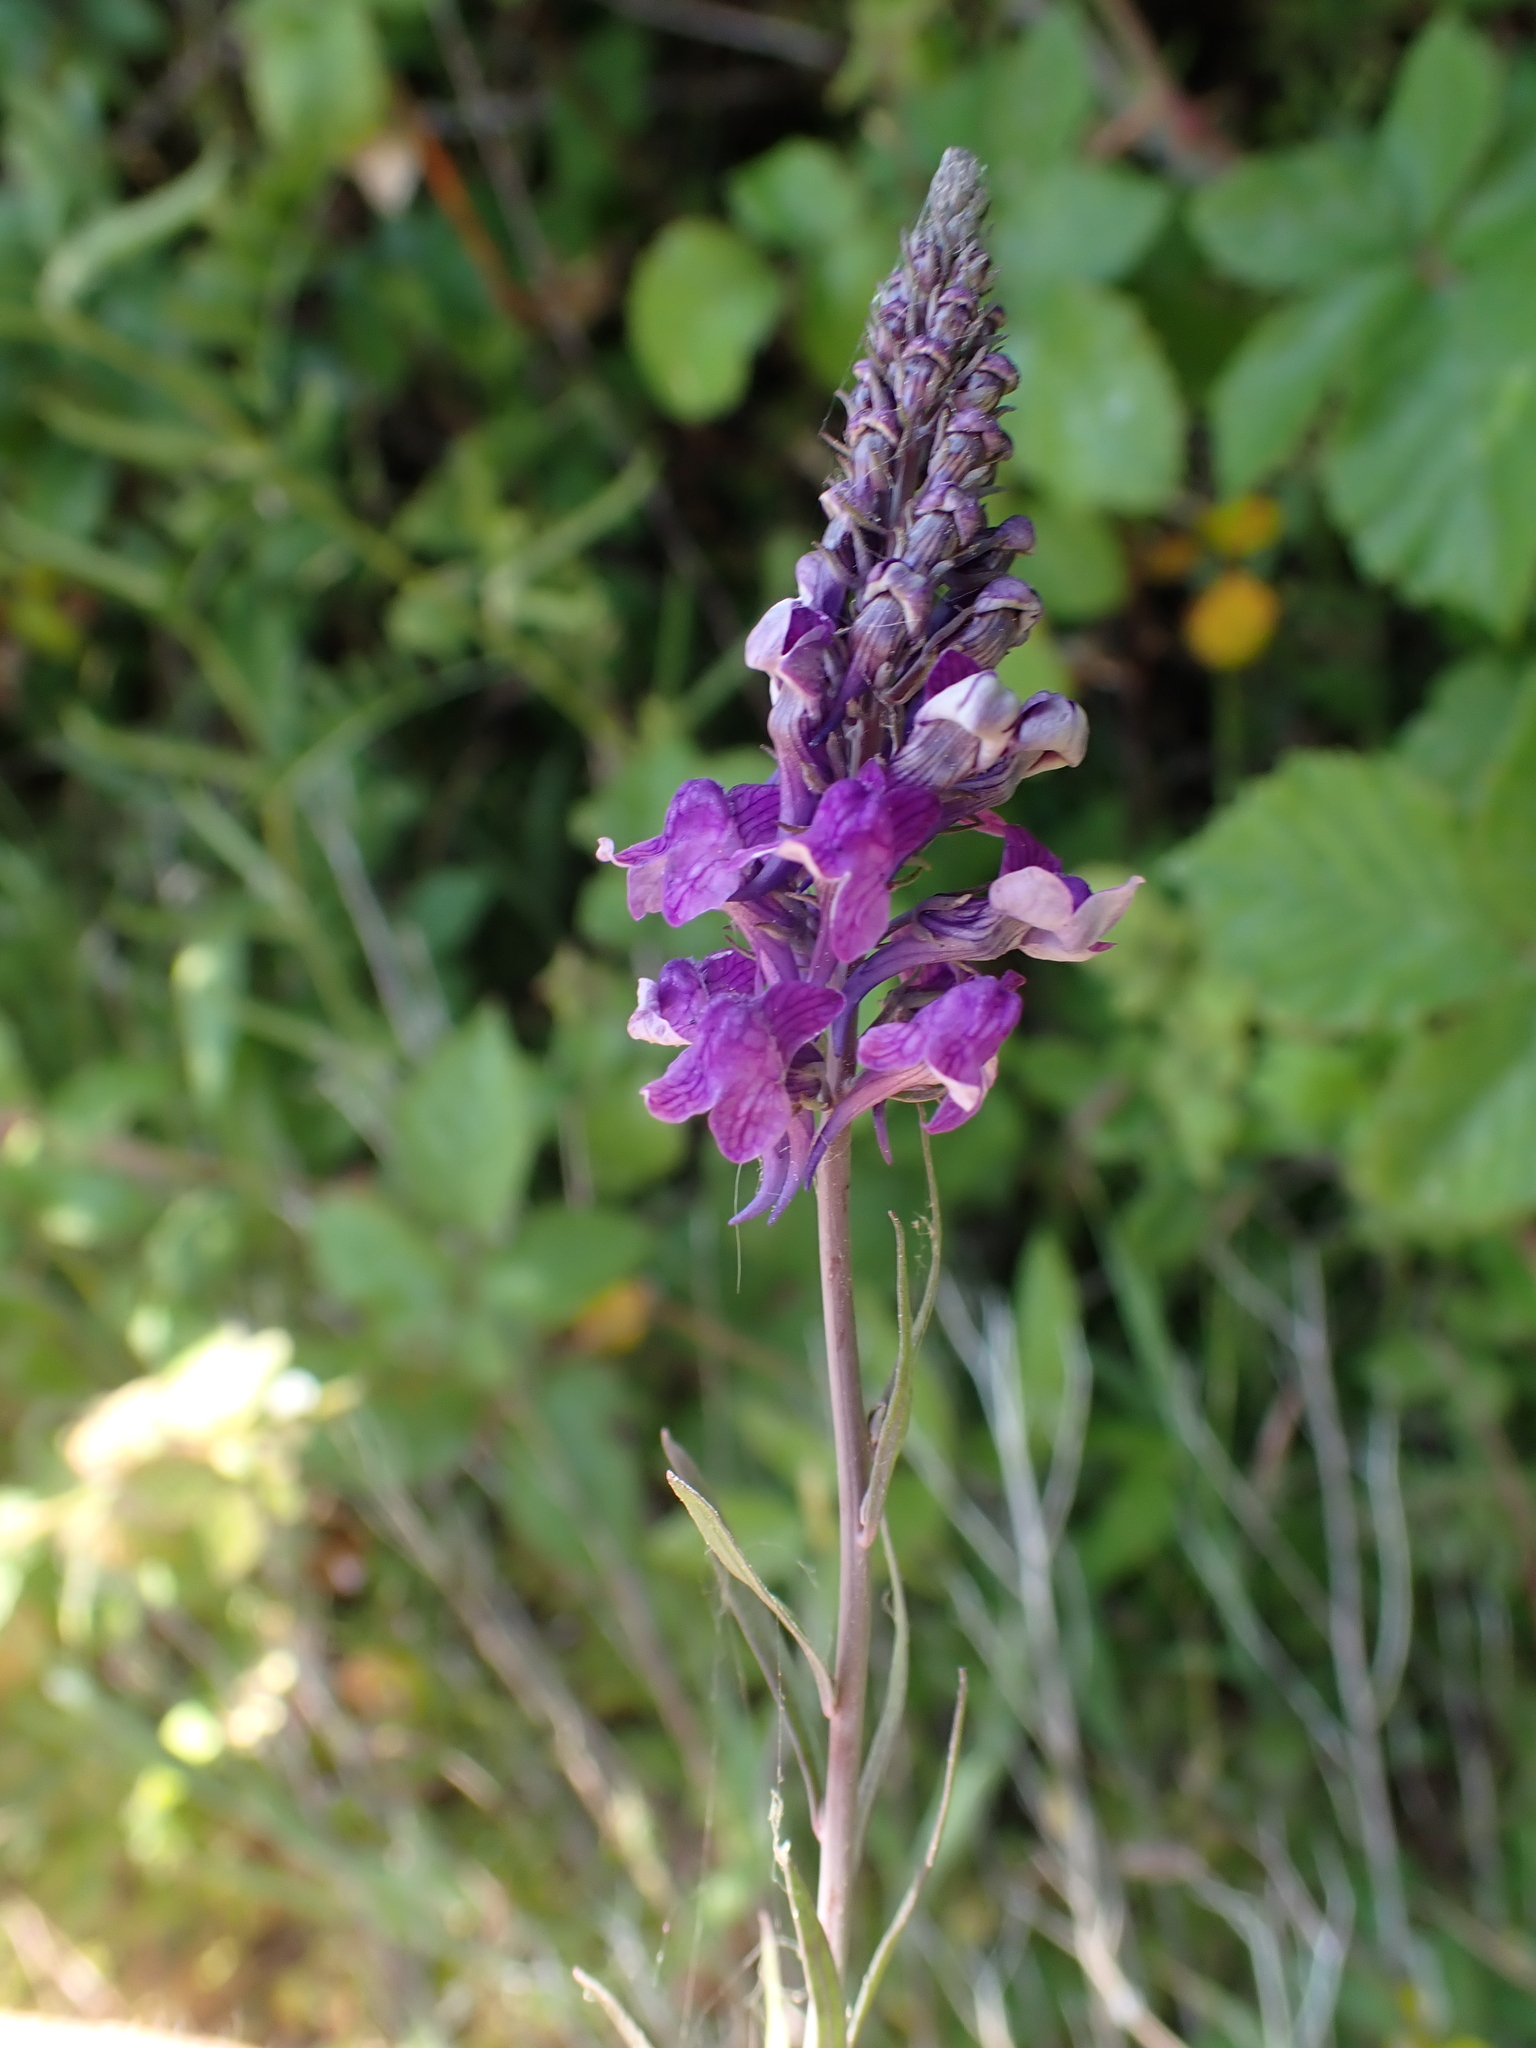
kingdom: Plantae
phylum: Tracheophyta
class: Magnoliopsida
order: Lamiales
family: Plantaginaceae
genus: Linaria
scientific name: Linaria purpurea
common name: Purple toadflax
